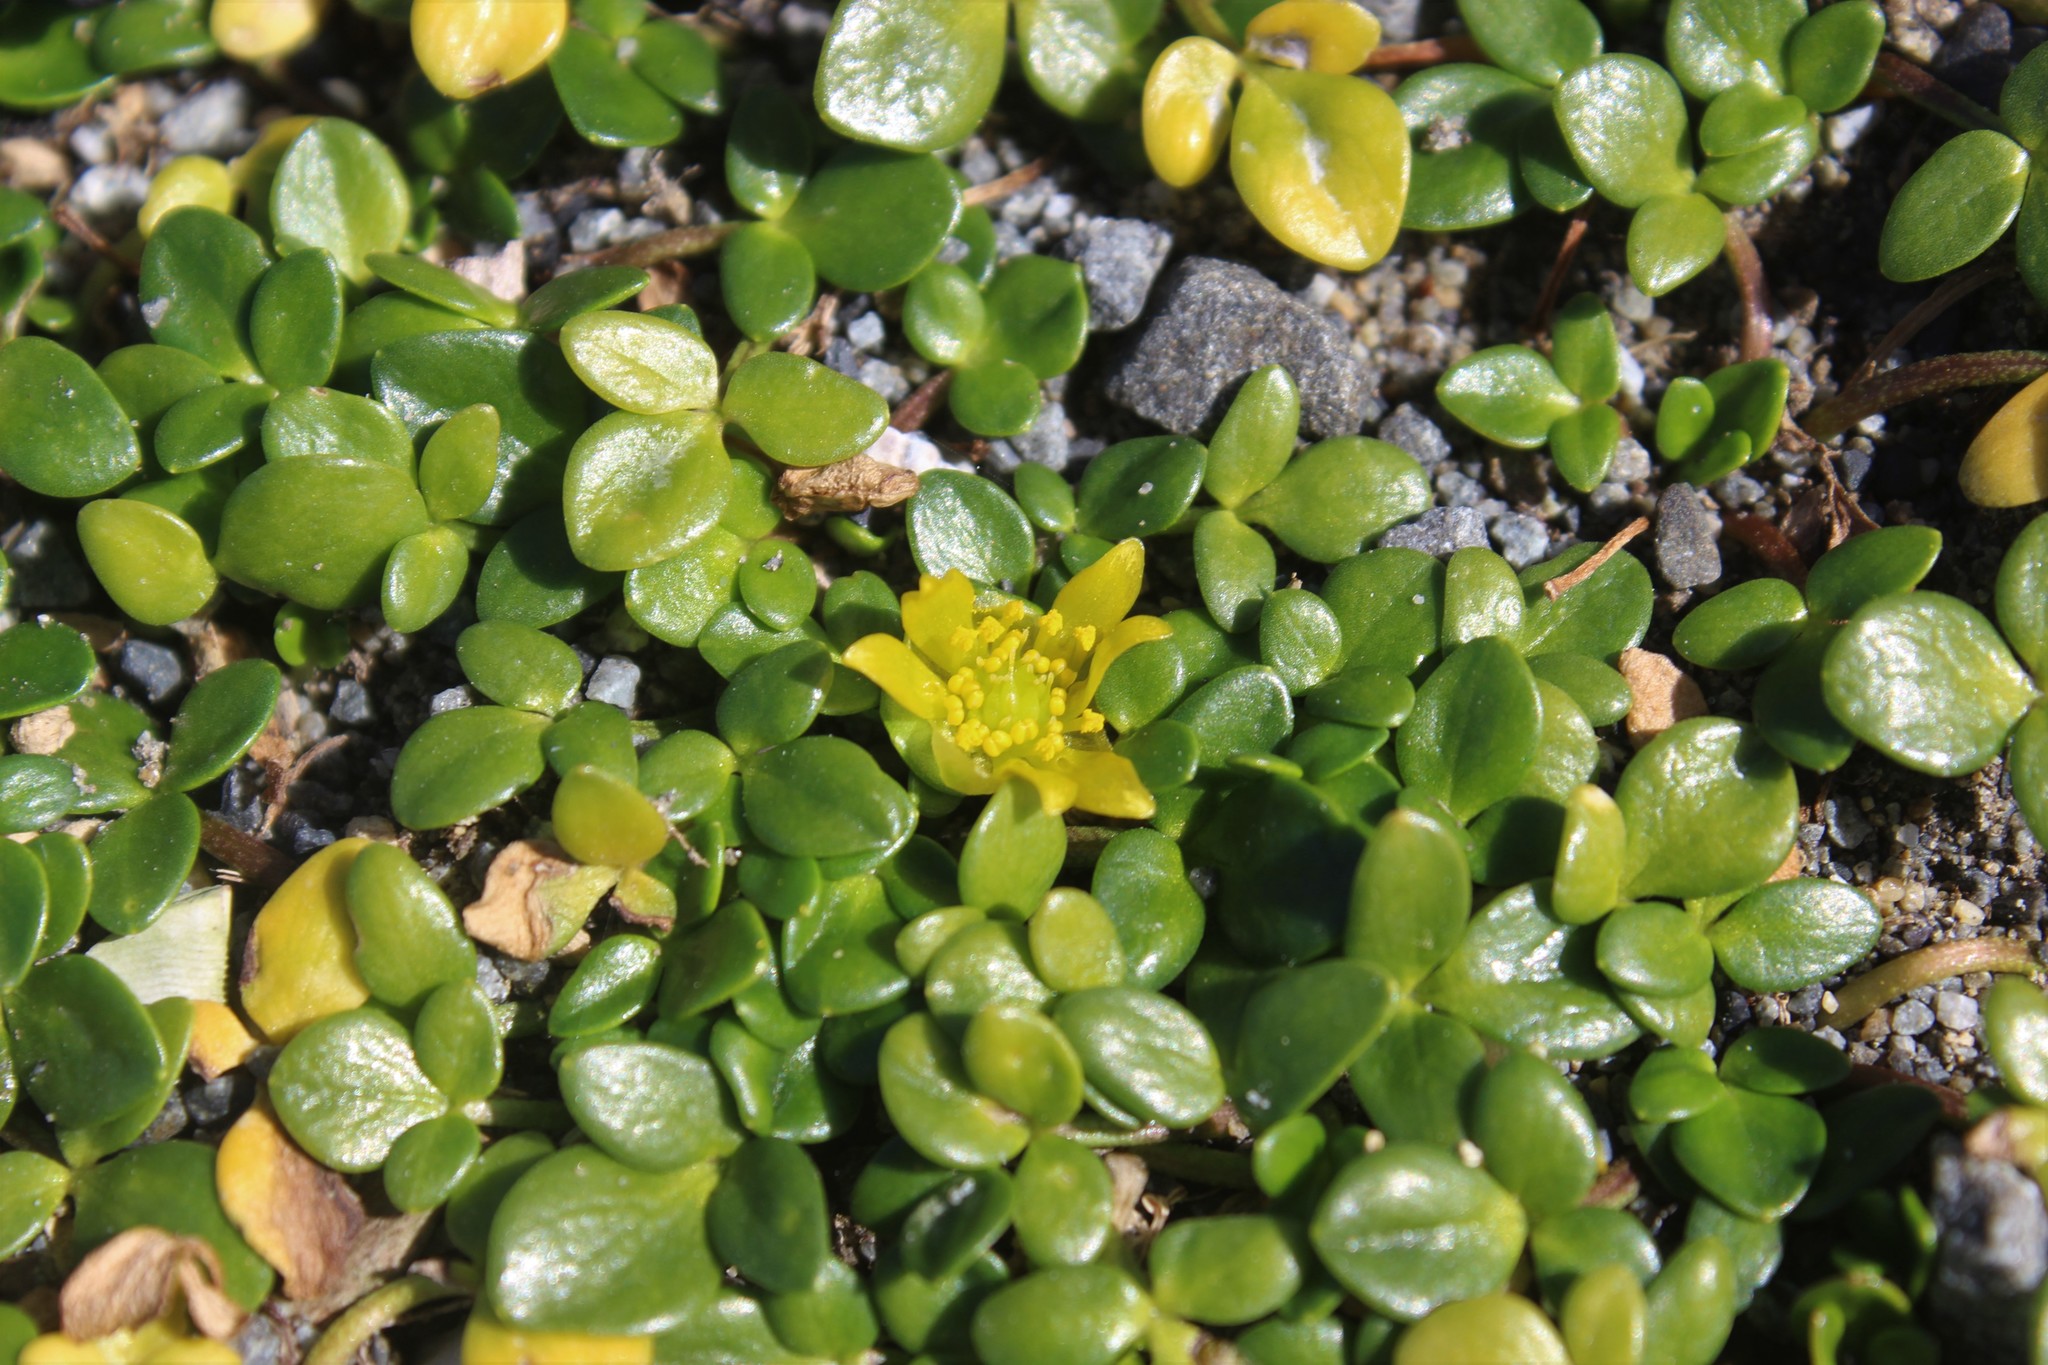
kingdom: Plantae
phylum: Tracheophyta
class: Magnoliopsida
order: Ranunculales
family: Ranunculaceae
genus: Ranunculus
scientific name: Ranunculus acaulis
